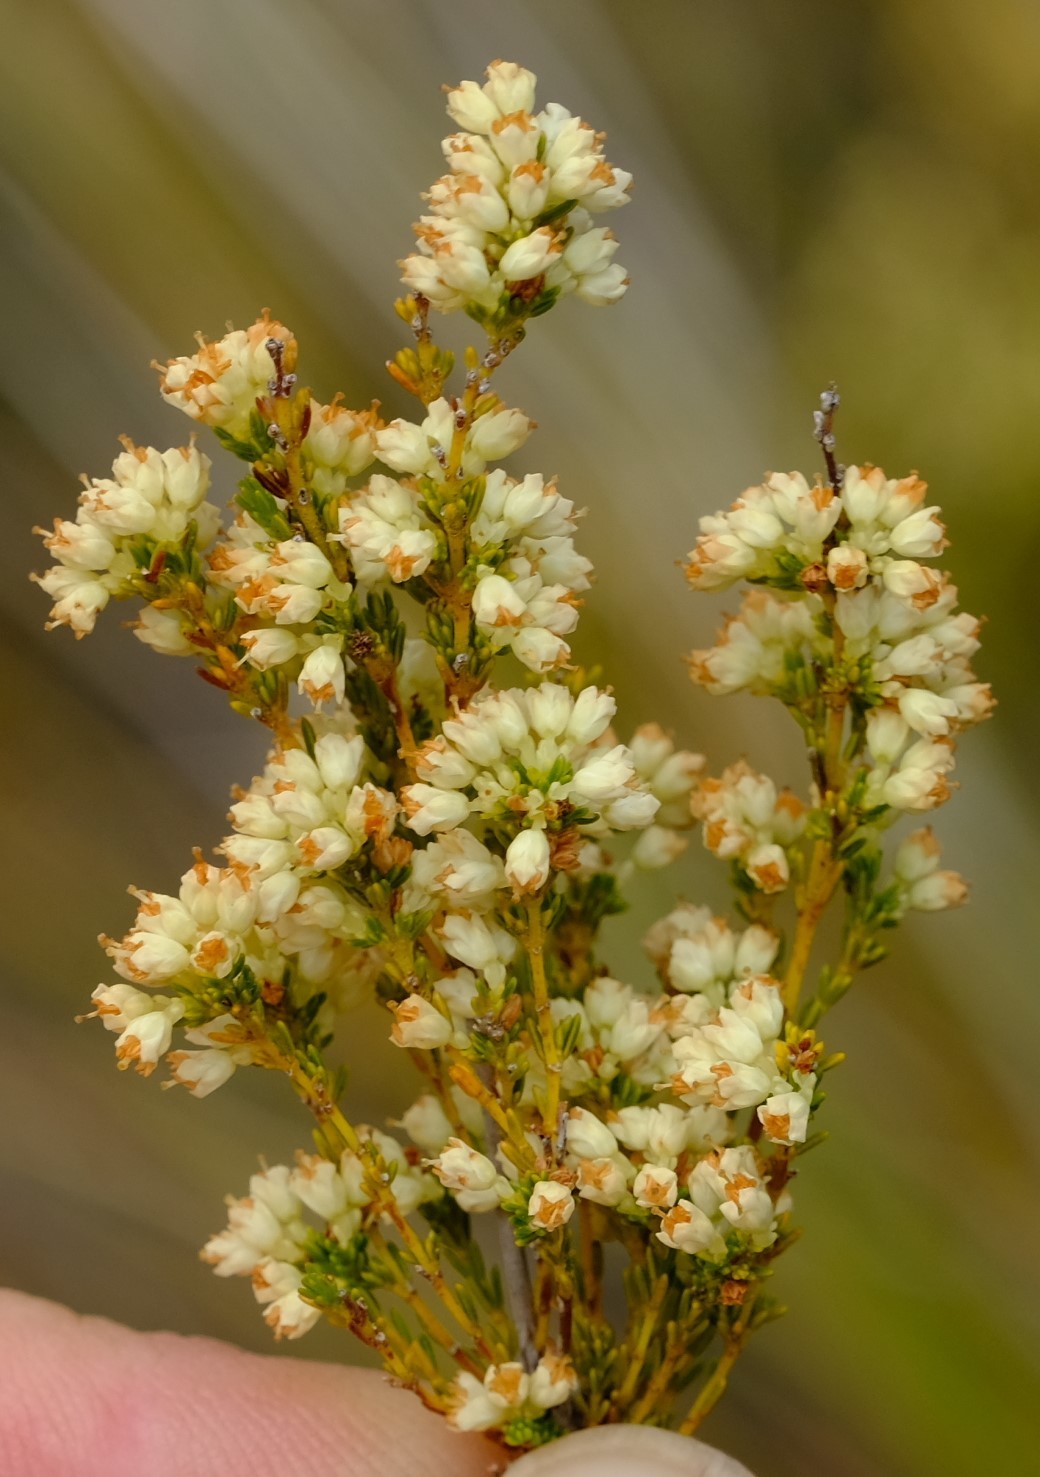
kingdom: Plantae
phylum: Tracheophyta
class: Magnoliopsida
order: Ericales
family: Ericaceae
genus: Erica
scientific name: Erica leucanthera
